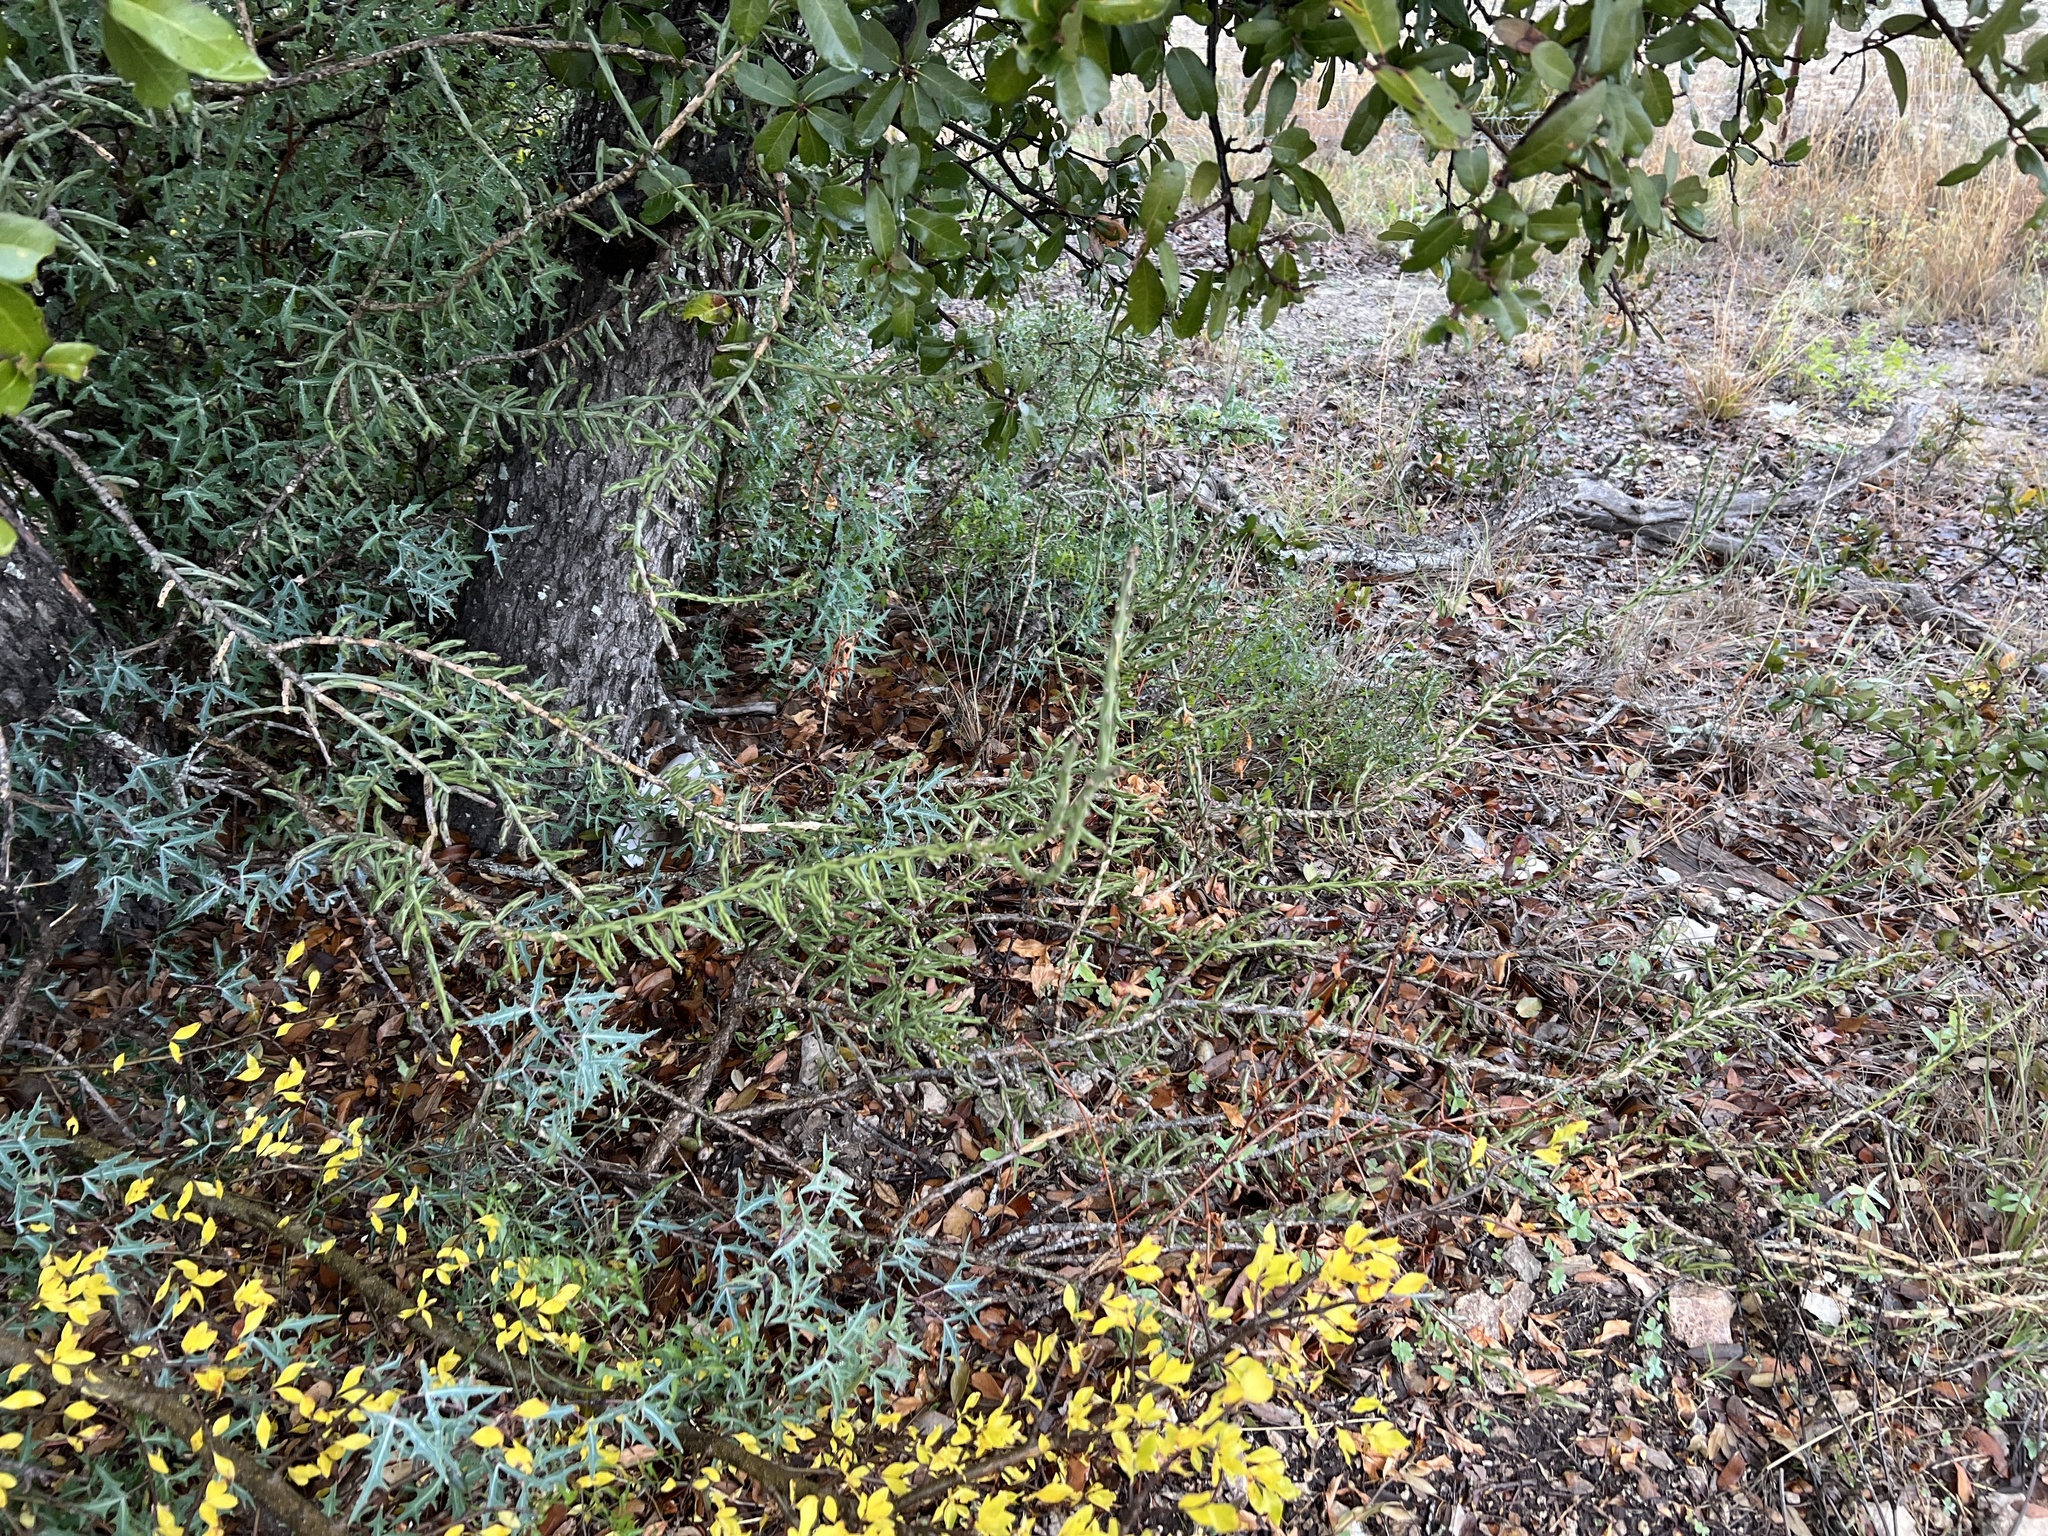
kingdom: Plantae
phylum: Tracheophyta
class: Magnoliopsida
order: Caryophyllales
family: Cactaceae
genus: Cylindropuntia
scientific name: Cylindropuntia leptocaulis
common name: Christmas cactus
